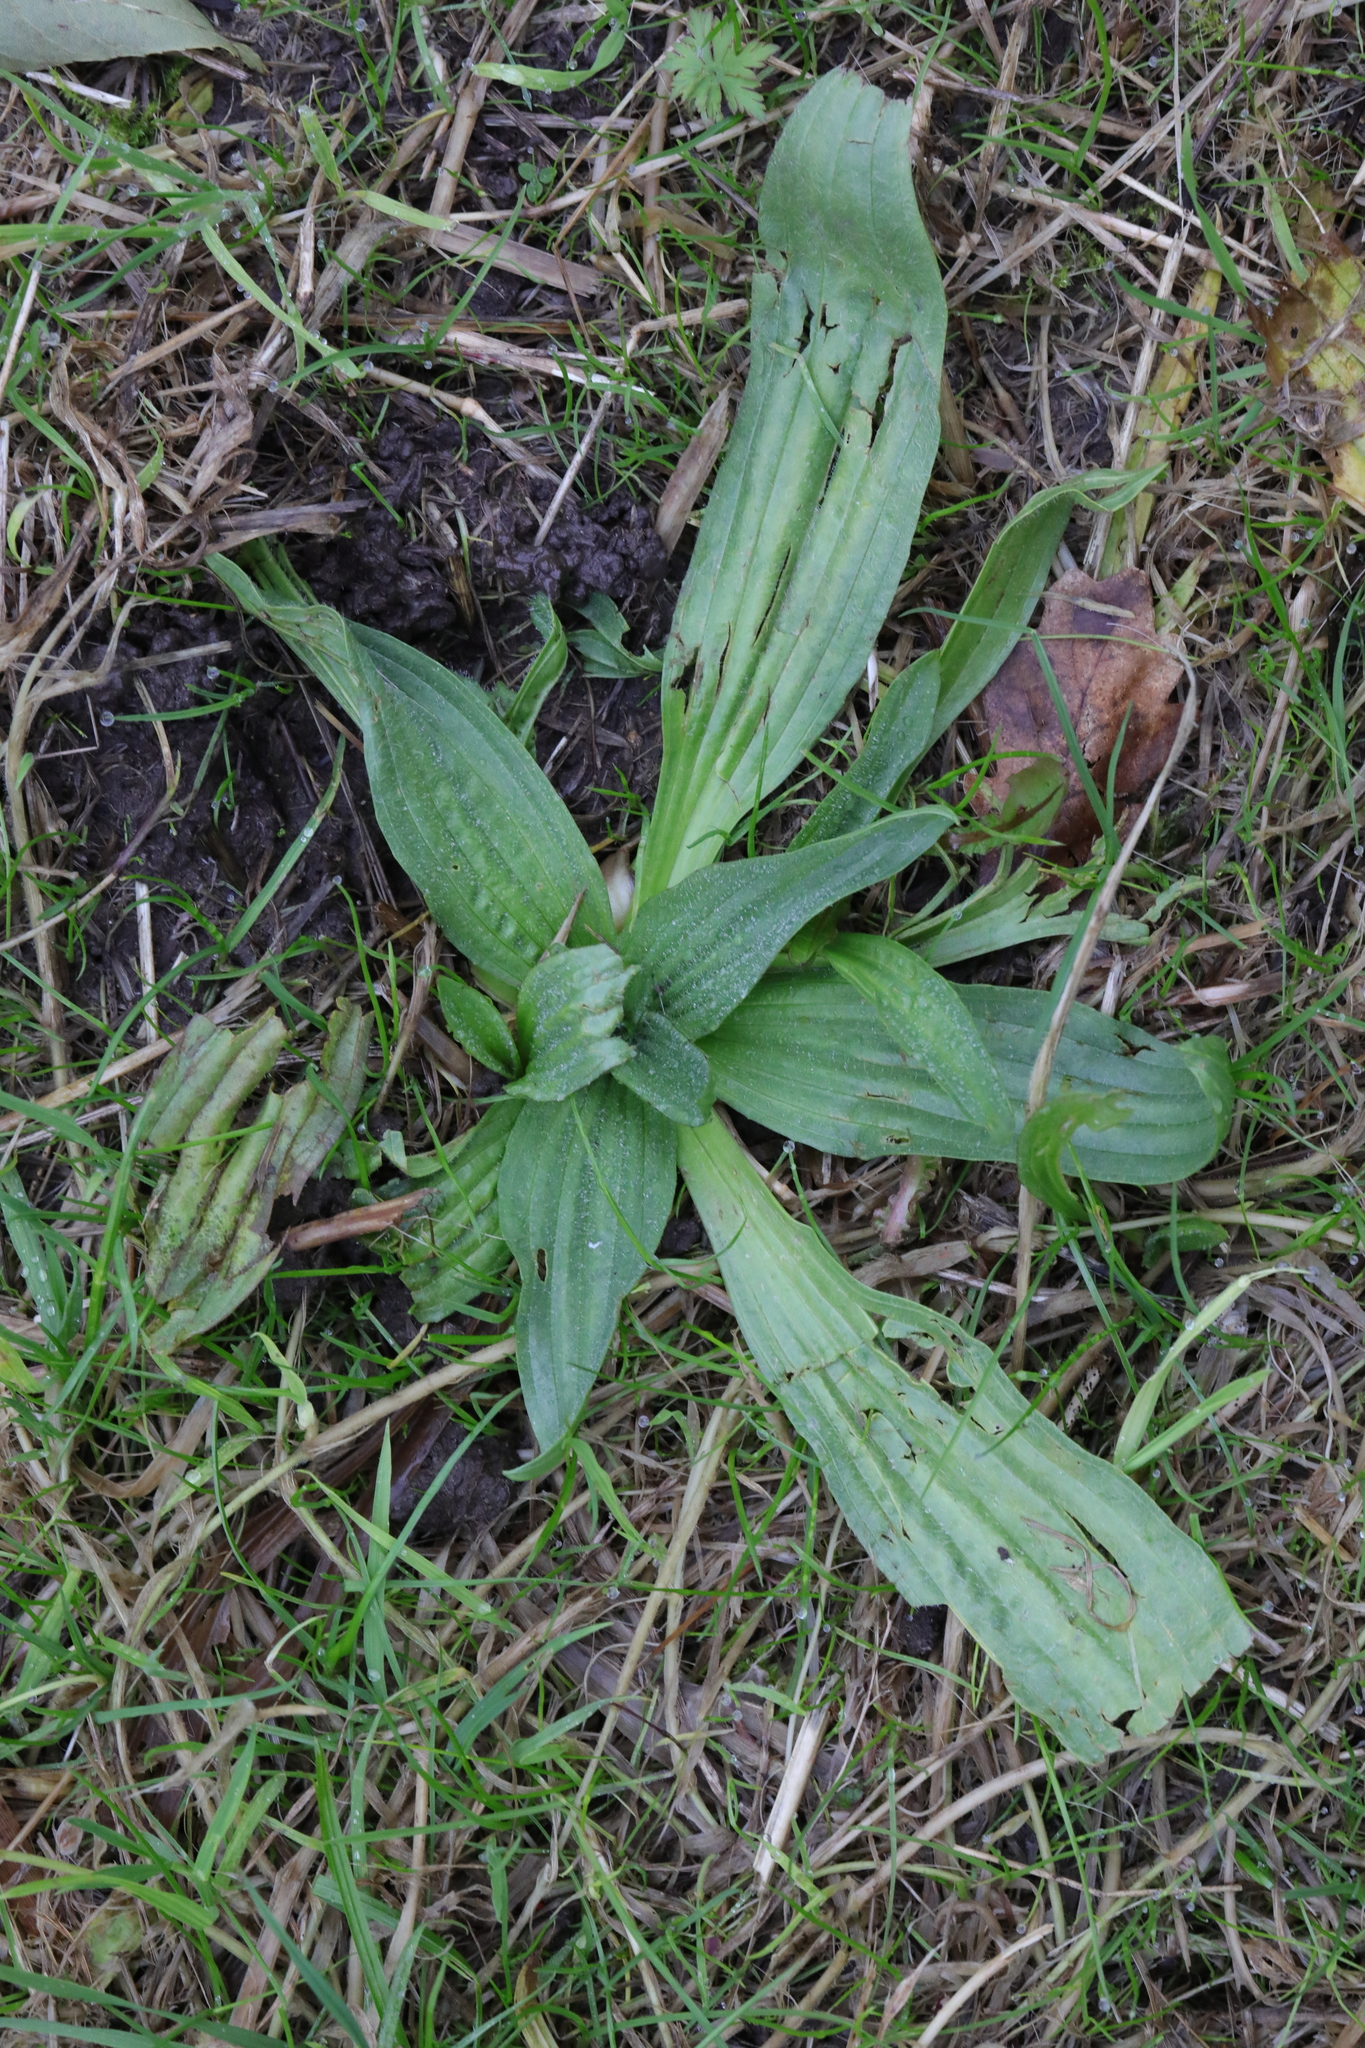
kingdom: Plantae
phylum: Tracheophyta
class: Magnoliopsida
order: Lamiales
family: Plantaginaceae
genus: Plantago
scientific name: Plantago lanceolata
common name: Ribwort plantain
